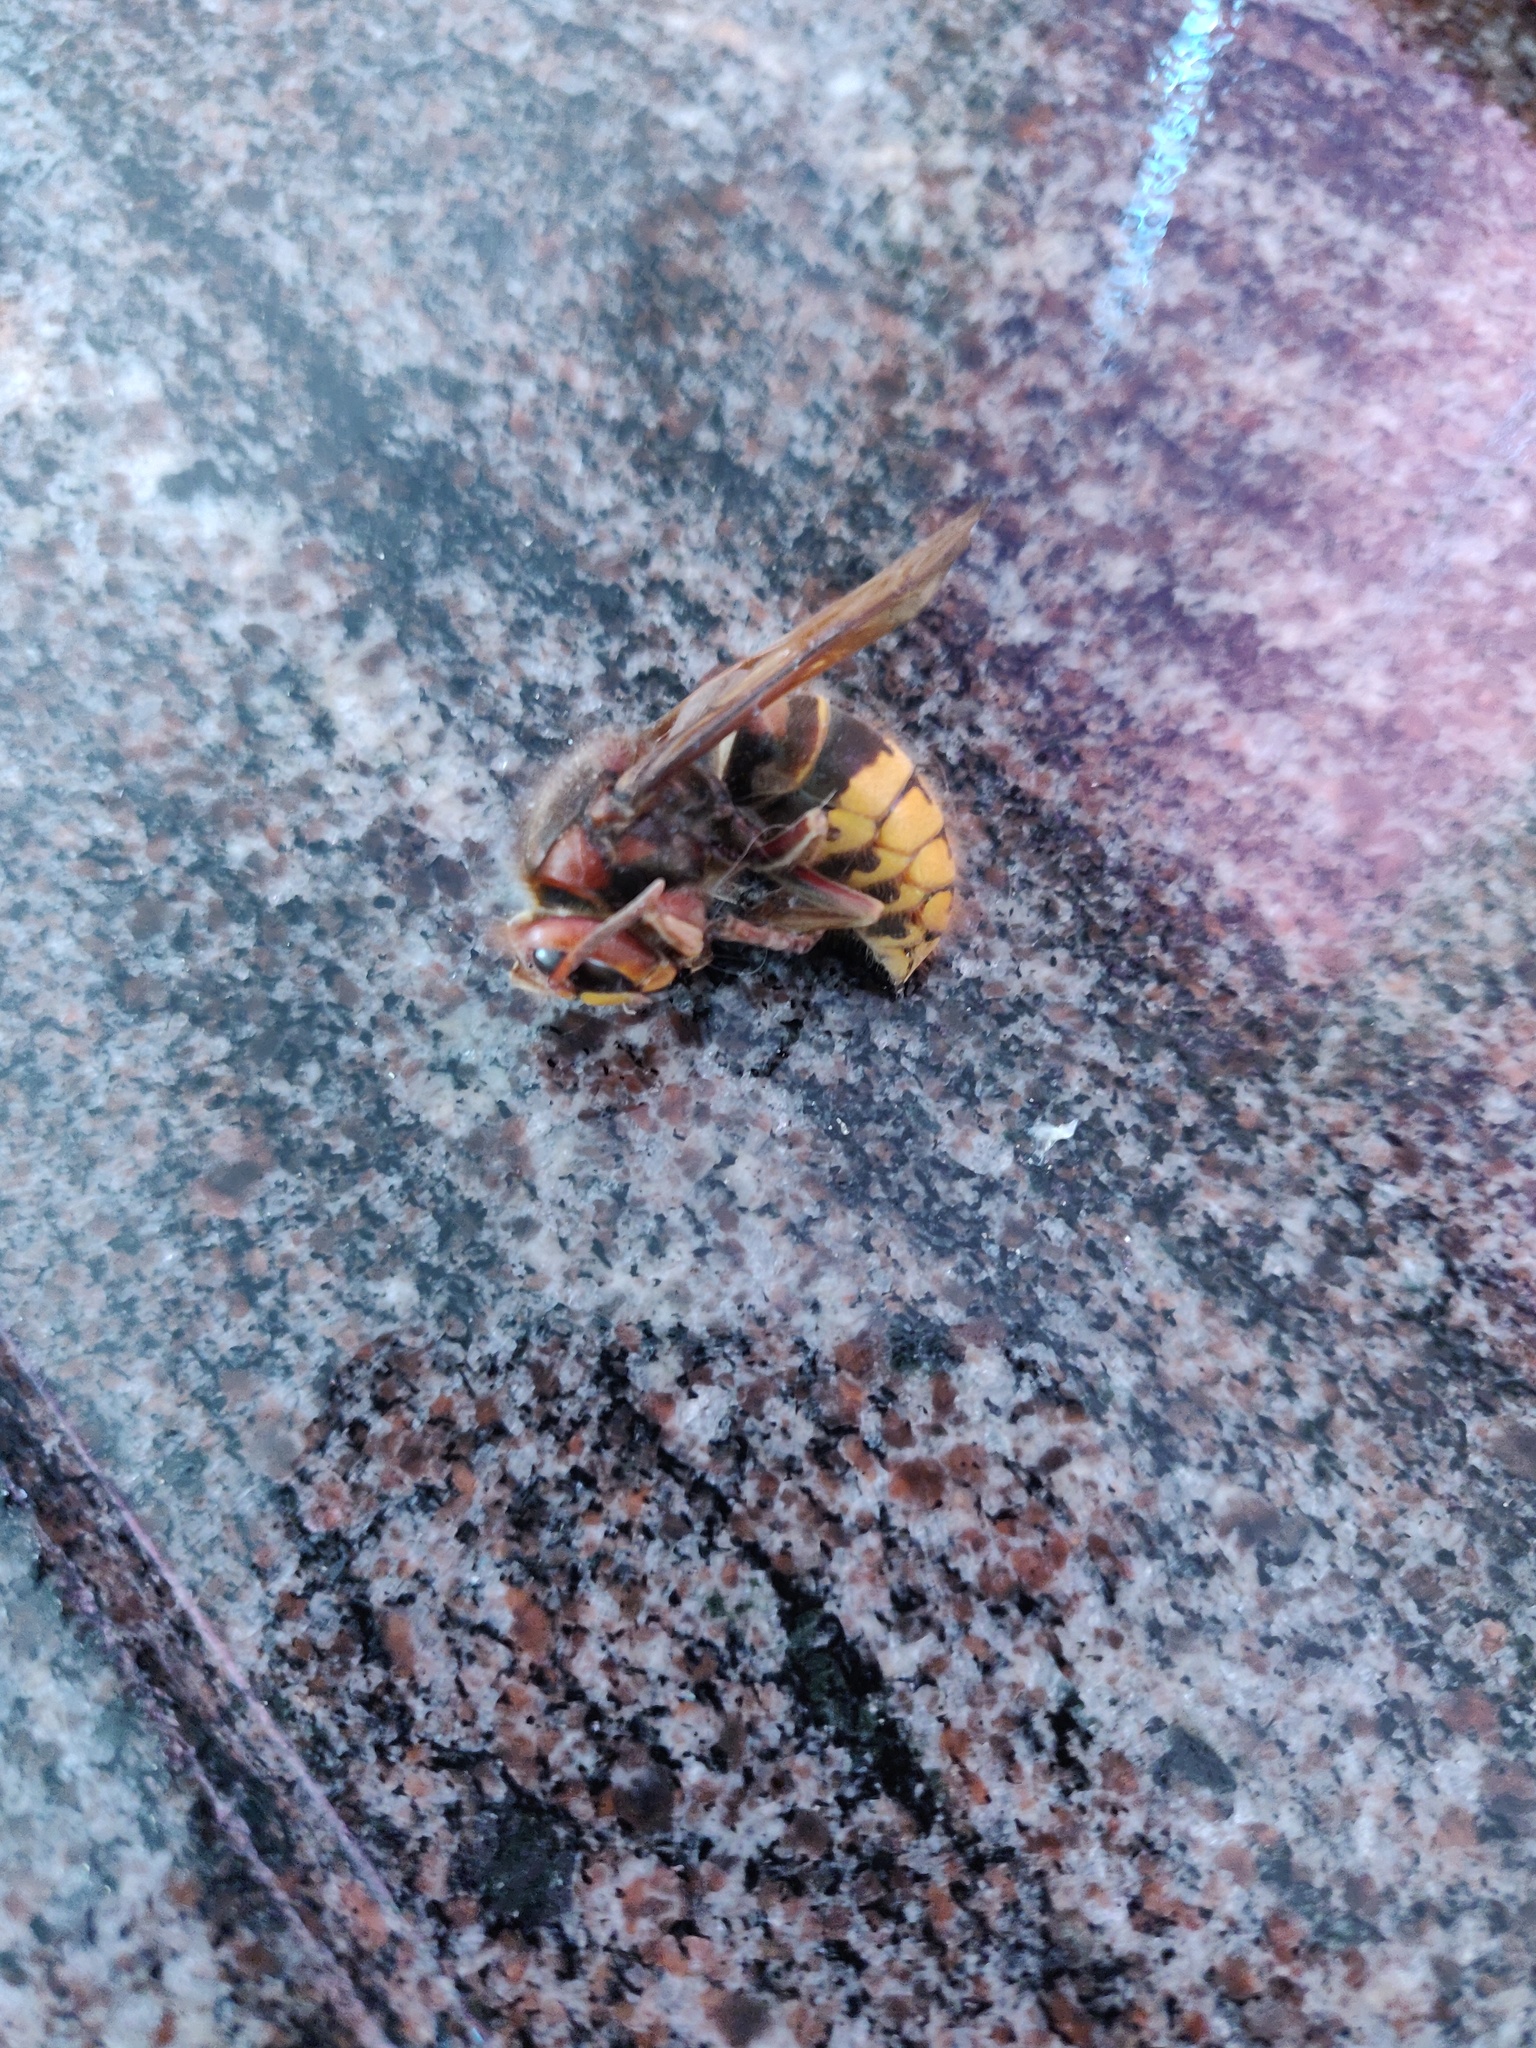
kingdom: Animalia
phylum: Arthropoda
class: Insecta
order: Hymenoptera
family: Vespidae
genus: Vespa
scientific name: Vespa crabro
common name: Hornet
